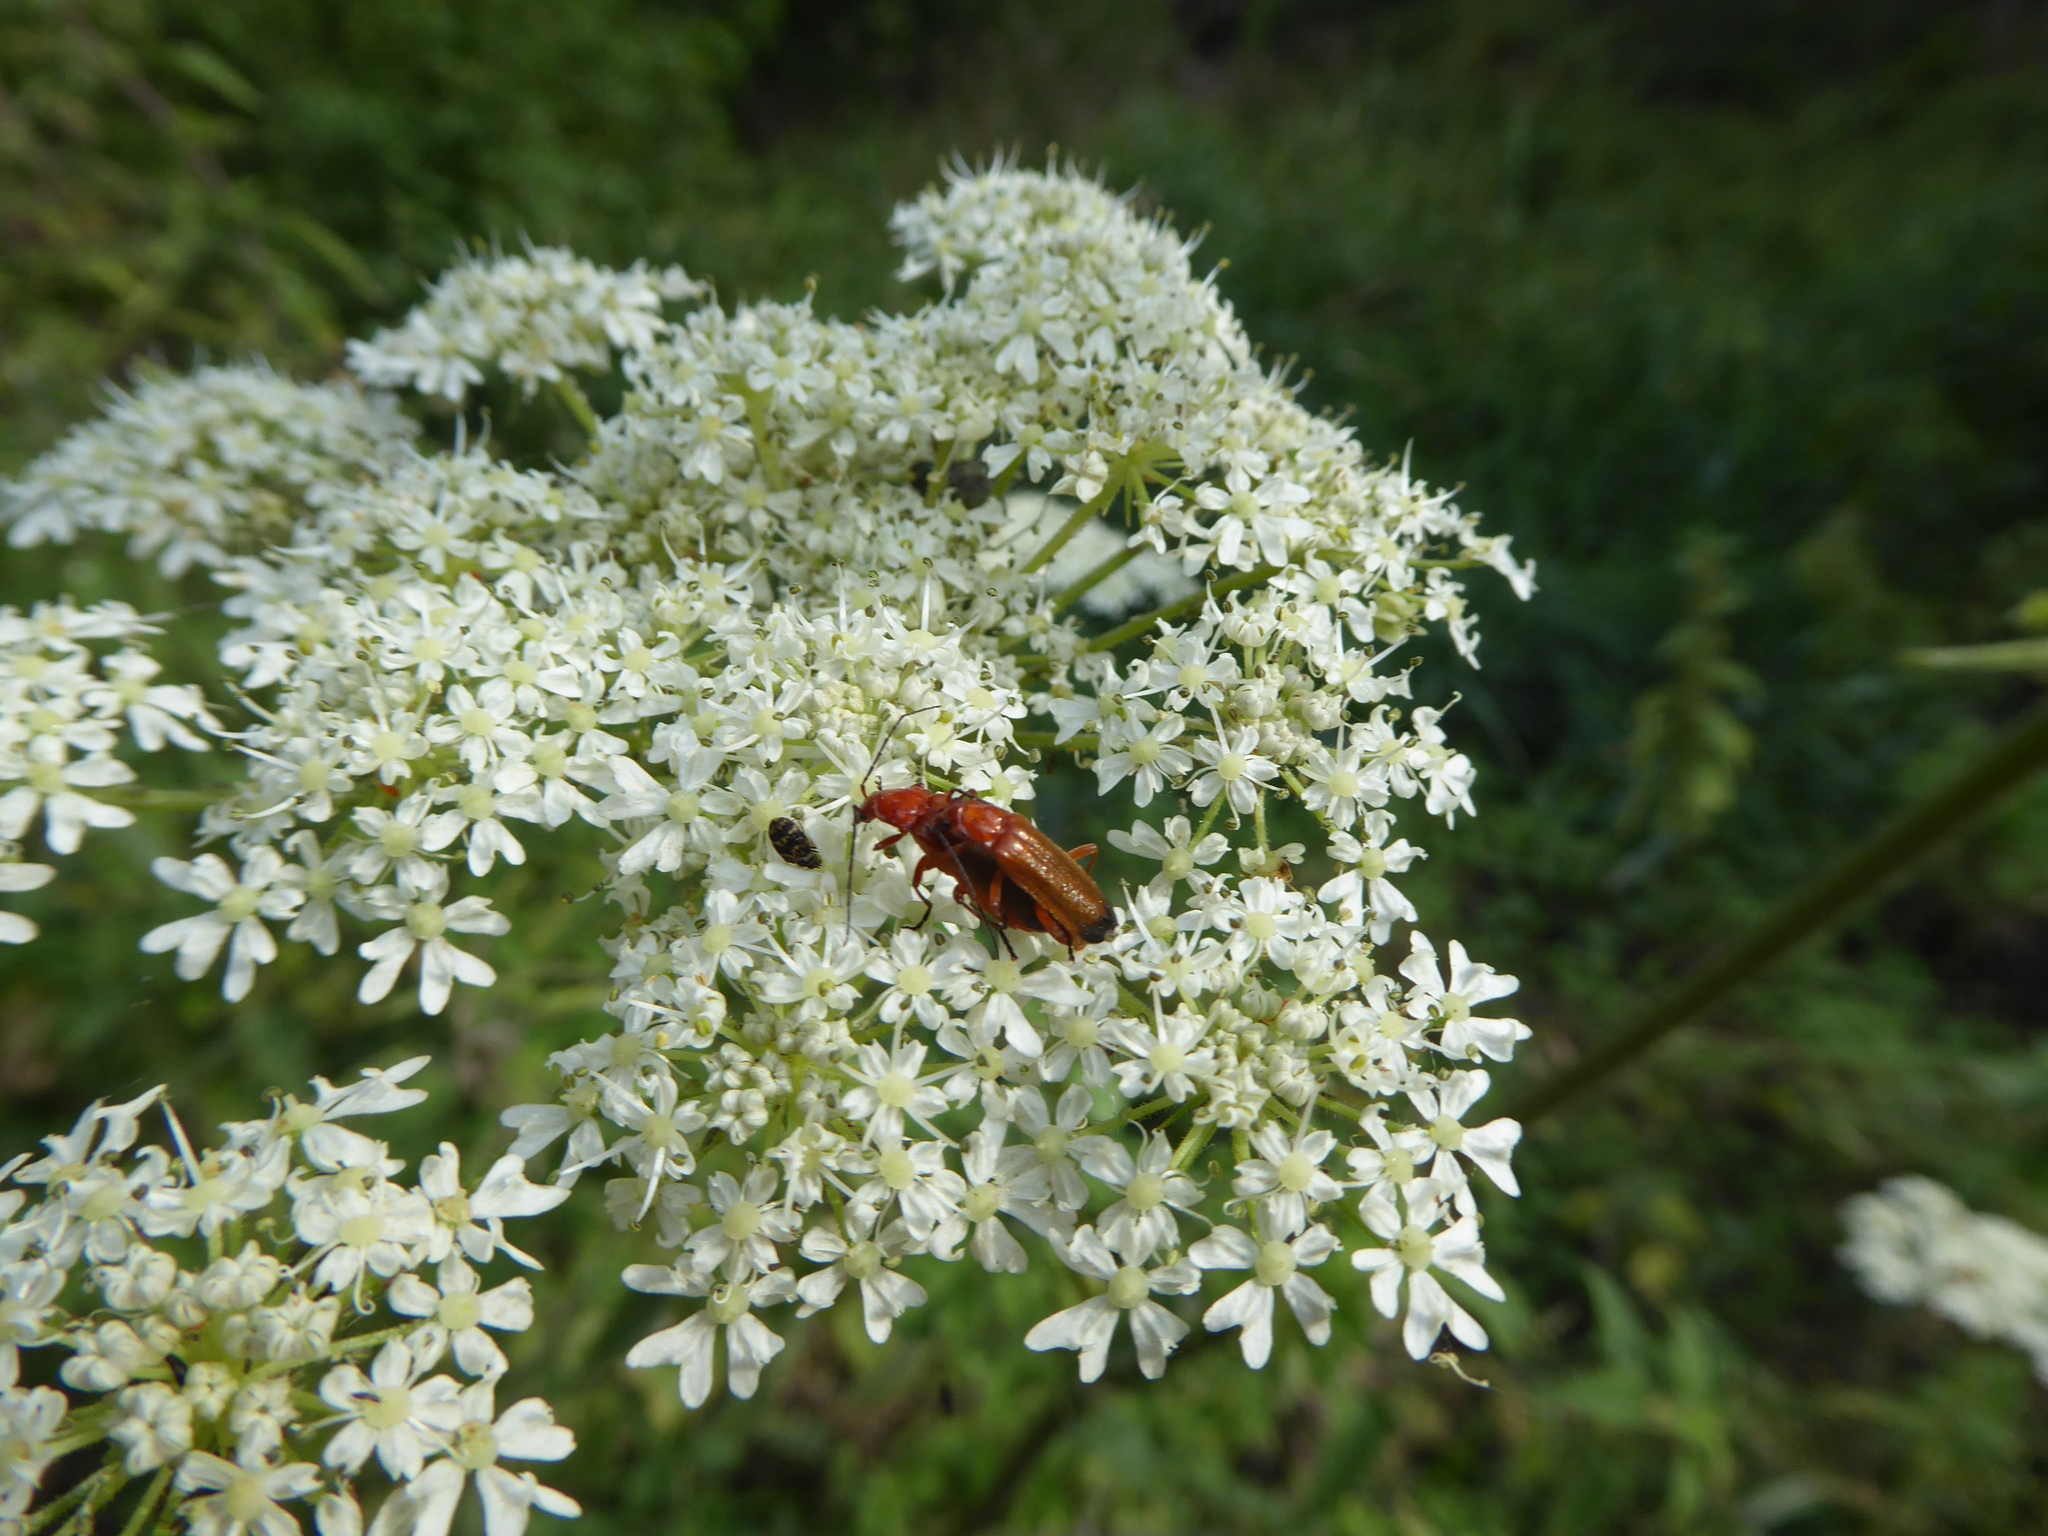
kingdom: Animalia
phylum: Arthropoda
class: Insecta
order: Coleoptera
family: Cantharidae
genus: Rhagonycha
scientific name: Rhagonycha fulva
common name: Common red soldier beetle
